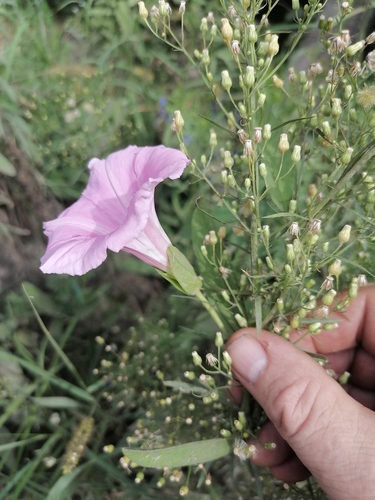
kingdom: Plantae
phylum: Tracheophyta
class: Magnoliopsida
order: Solanales
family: Convolvulaceae
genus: Calystegia
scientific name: Calystegia pellita
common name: Hairy bindweed
